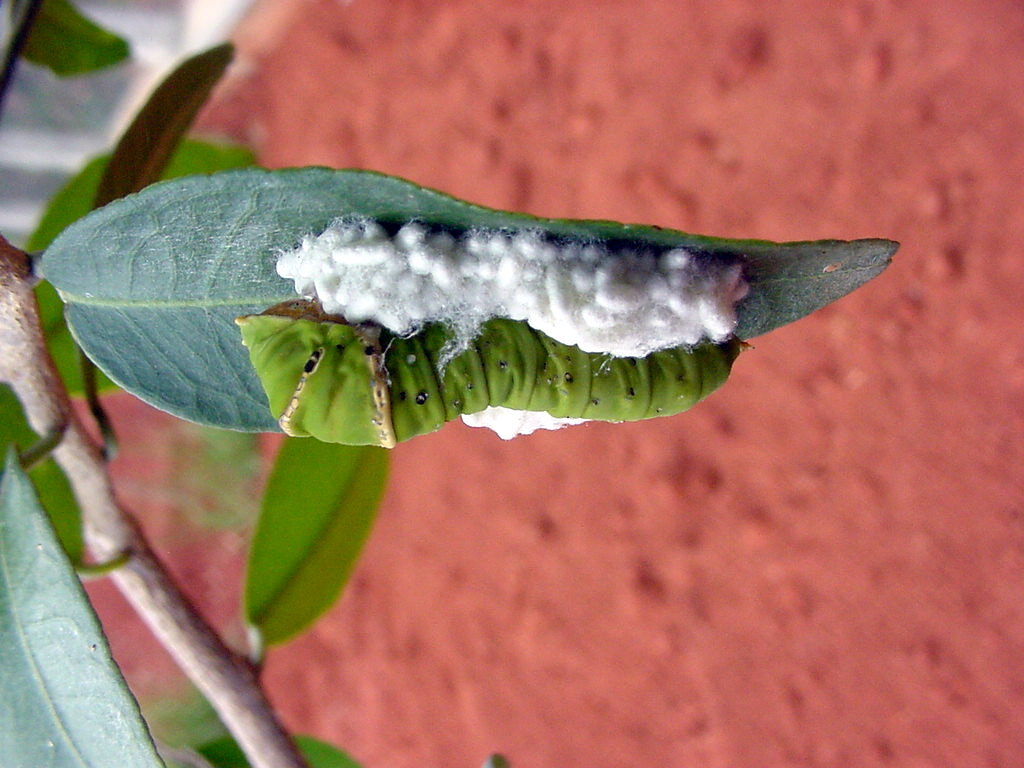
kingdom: Animalia
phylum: Arthropoda
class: Insecta
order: Lepidoptera
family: Papilionidae
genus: Papilio
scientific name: Papilio demoleus
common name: Lime butterfly
